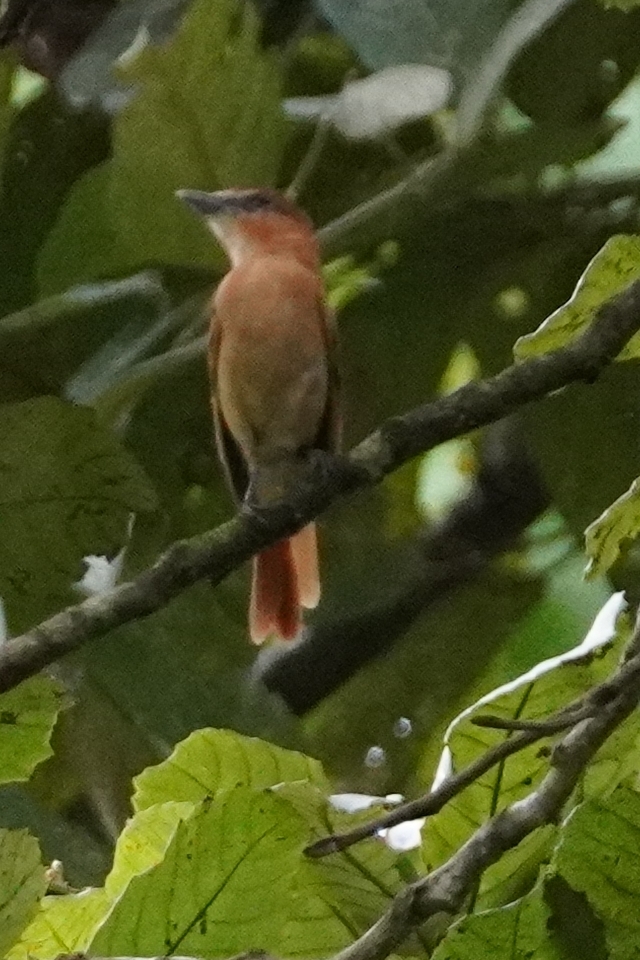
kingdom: Animalia
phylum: Chordata
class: Aves
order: Passeriformes
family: Cotingidae
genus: Pachyramphus
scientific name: Pachyramphus cinnamomeus
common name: Cinnamon becard
